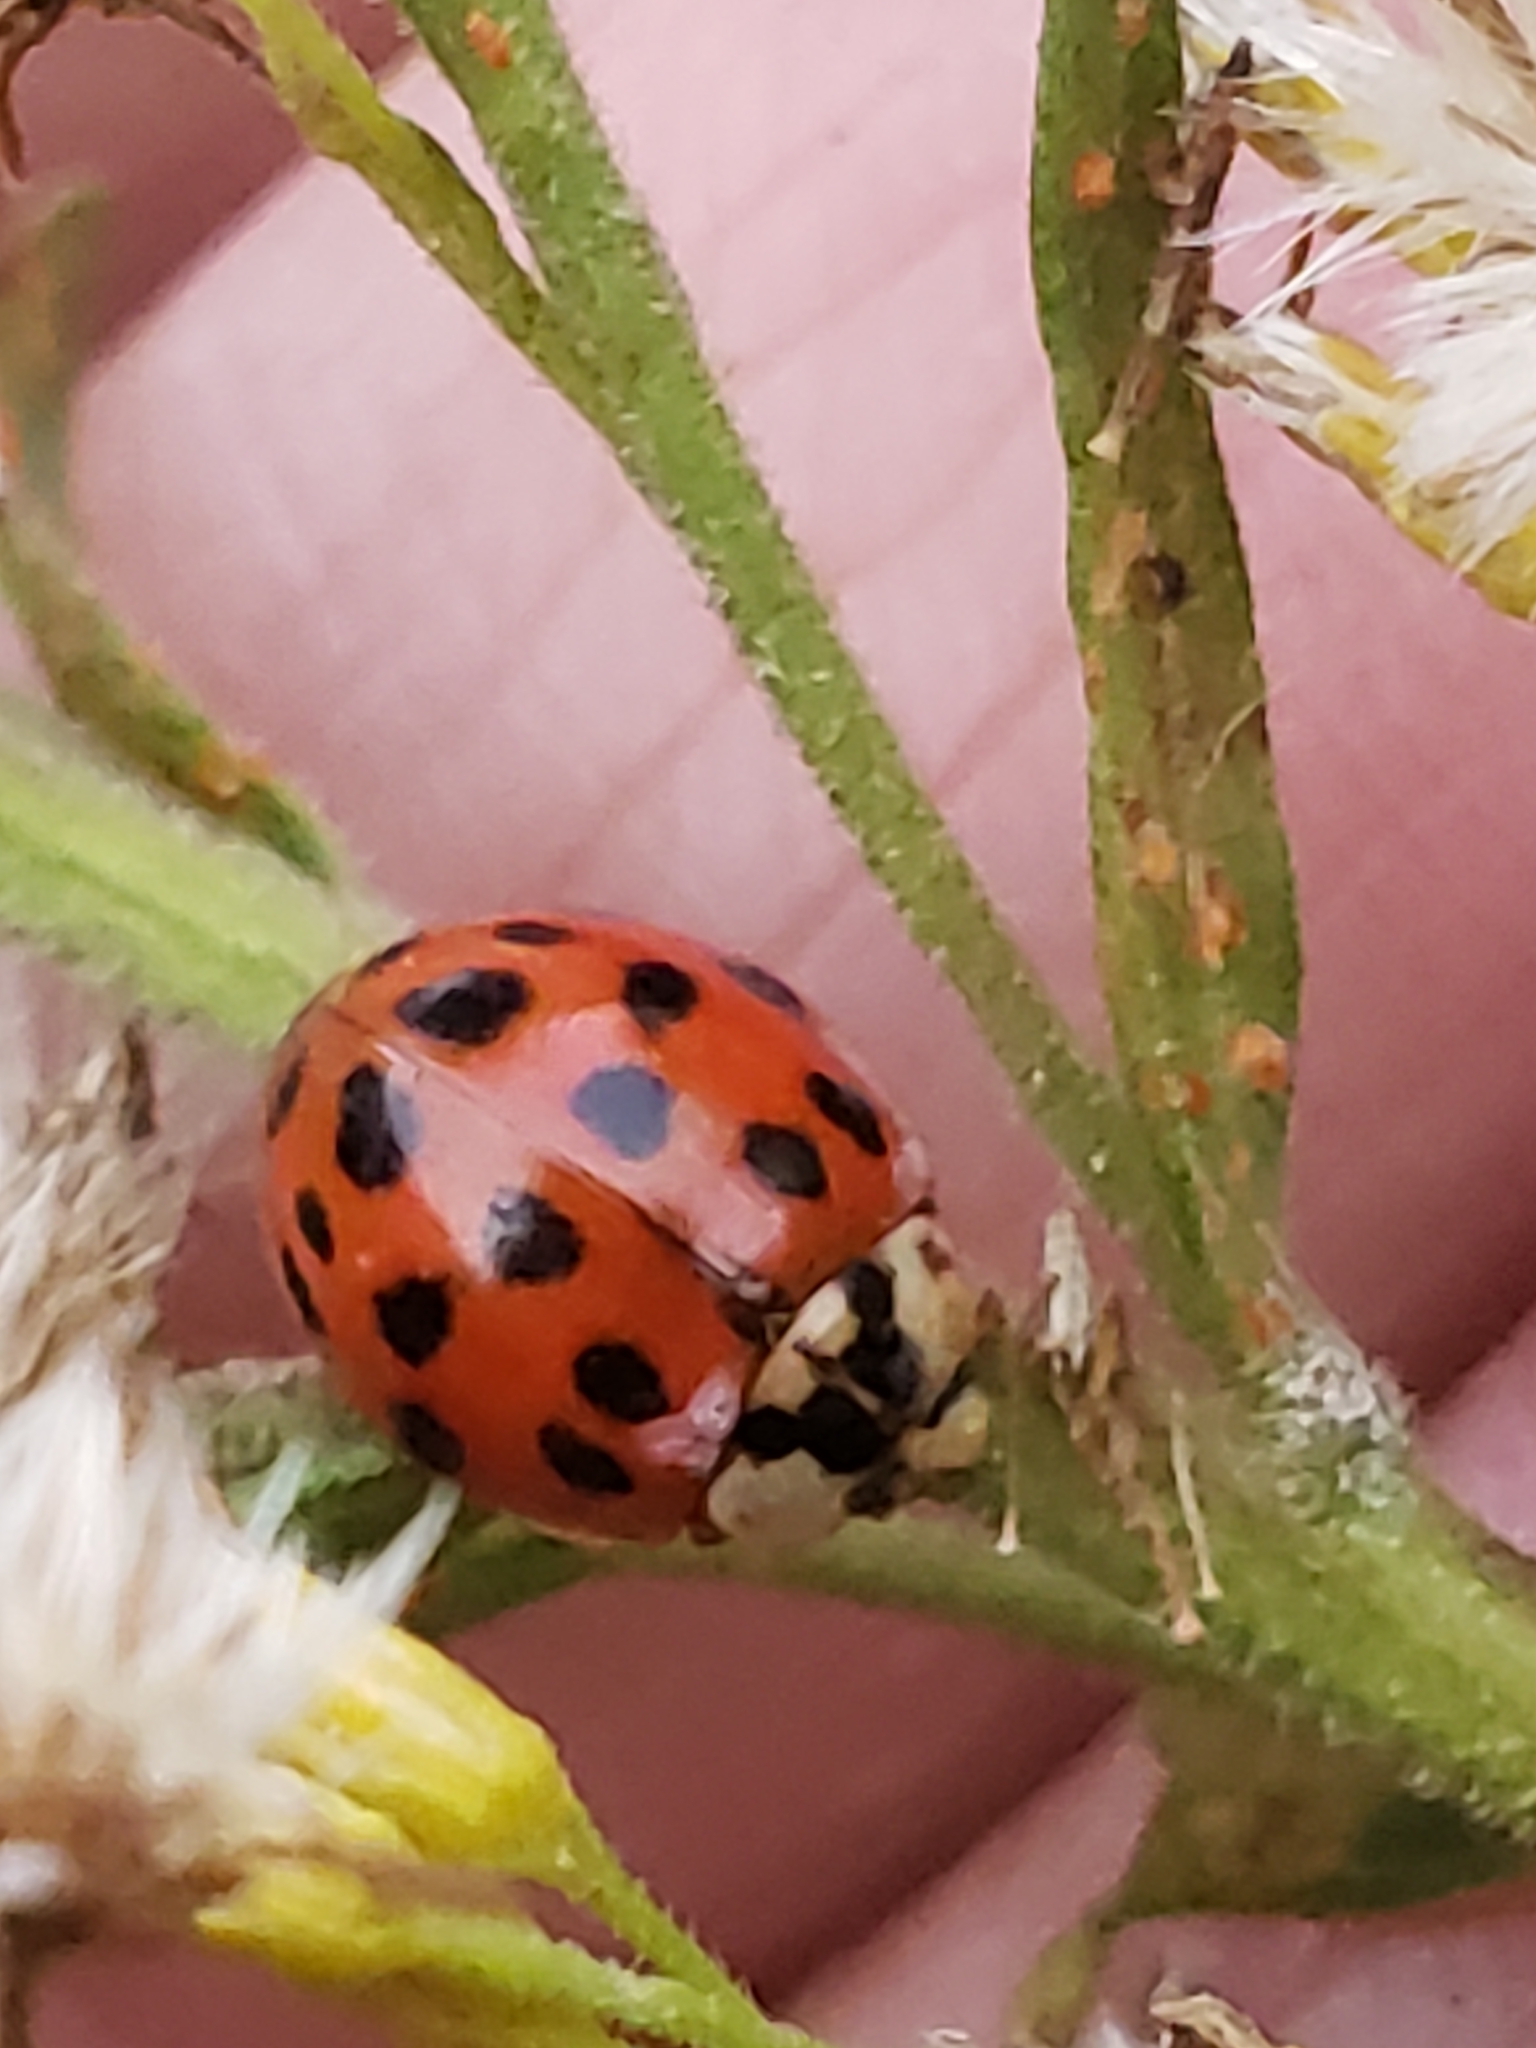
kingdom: Animalia
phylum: Arthropoda
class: Insecta
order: Coleoptera
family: Coccinellidae
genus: Harmonia
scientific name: Harmonia axyridis
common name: Harlequin ladybird
